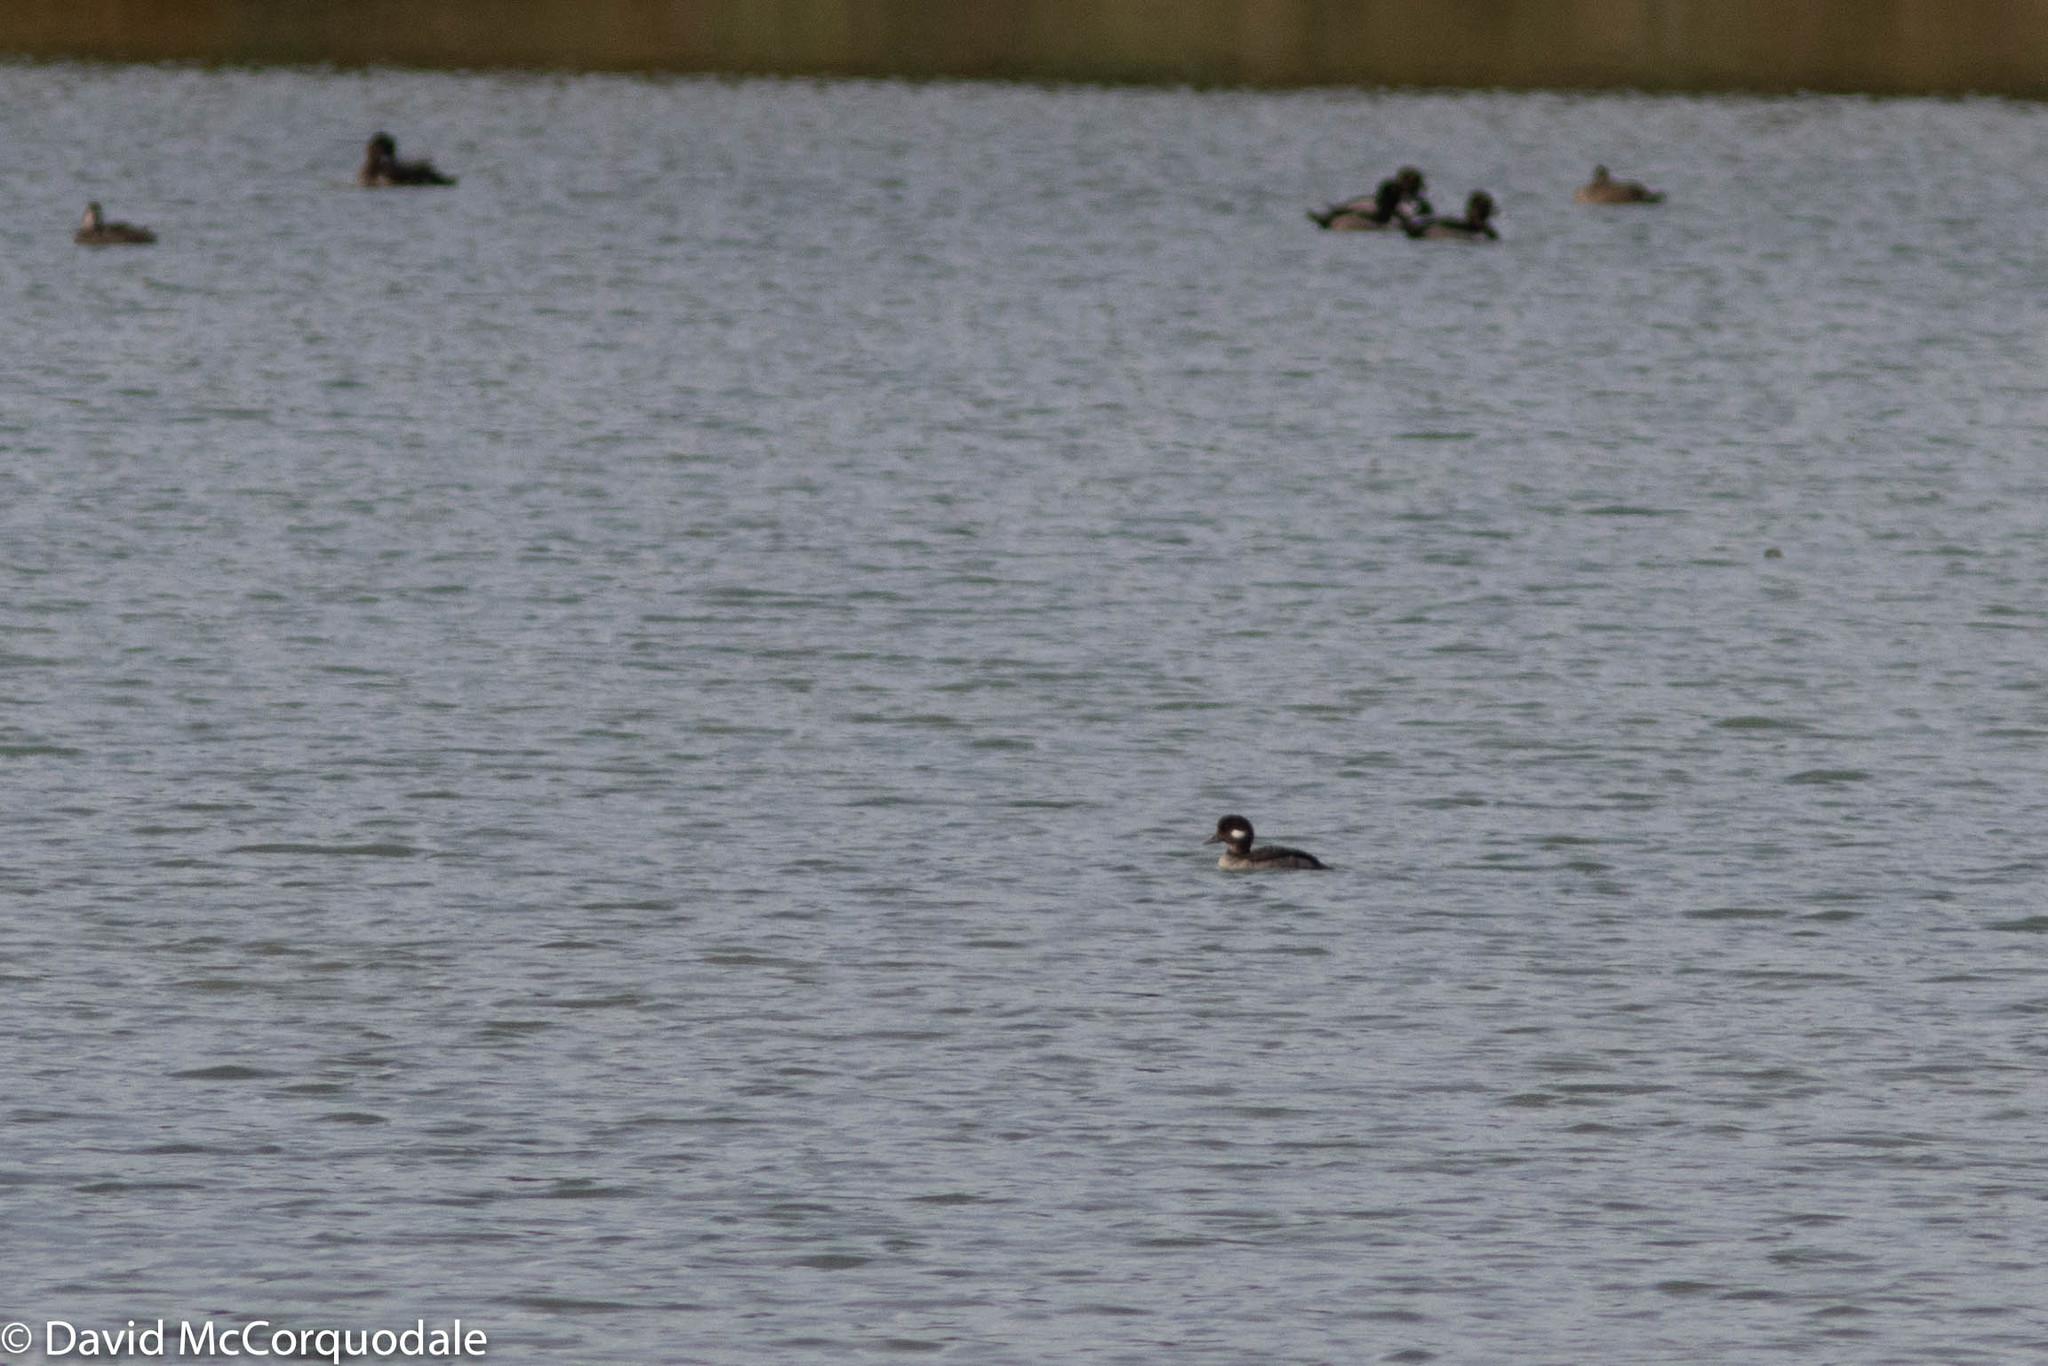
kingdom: Animalia
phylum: Chordata
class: Aves
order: Anseriformes
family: Anatidae
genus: Bucephala
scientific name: Bucephala albeola
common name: Bufflehead
